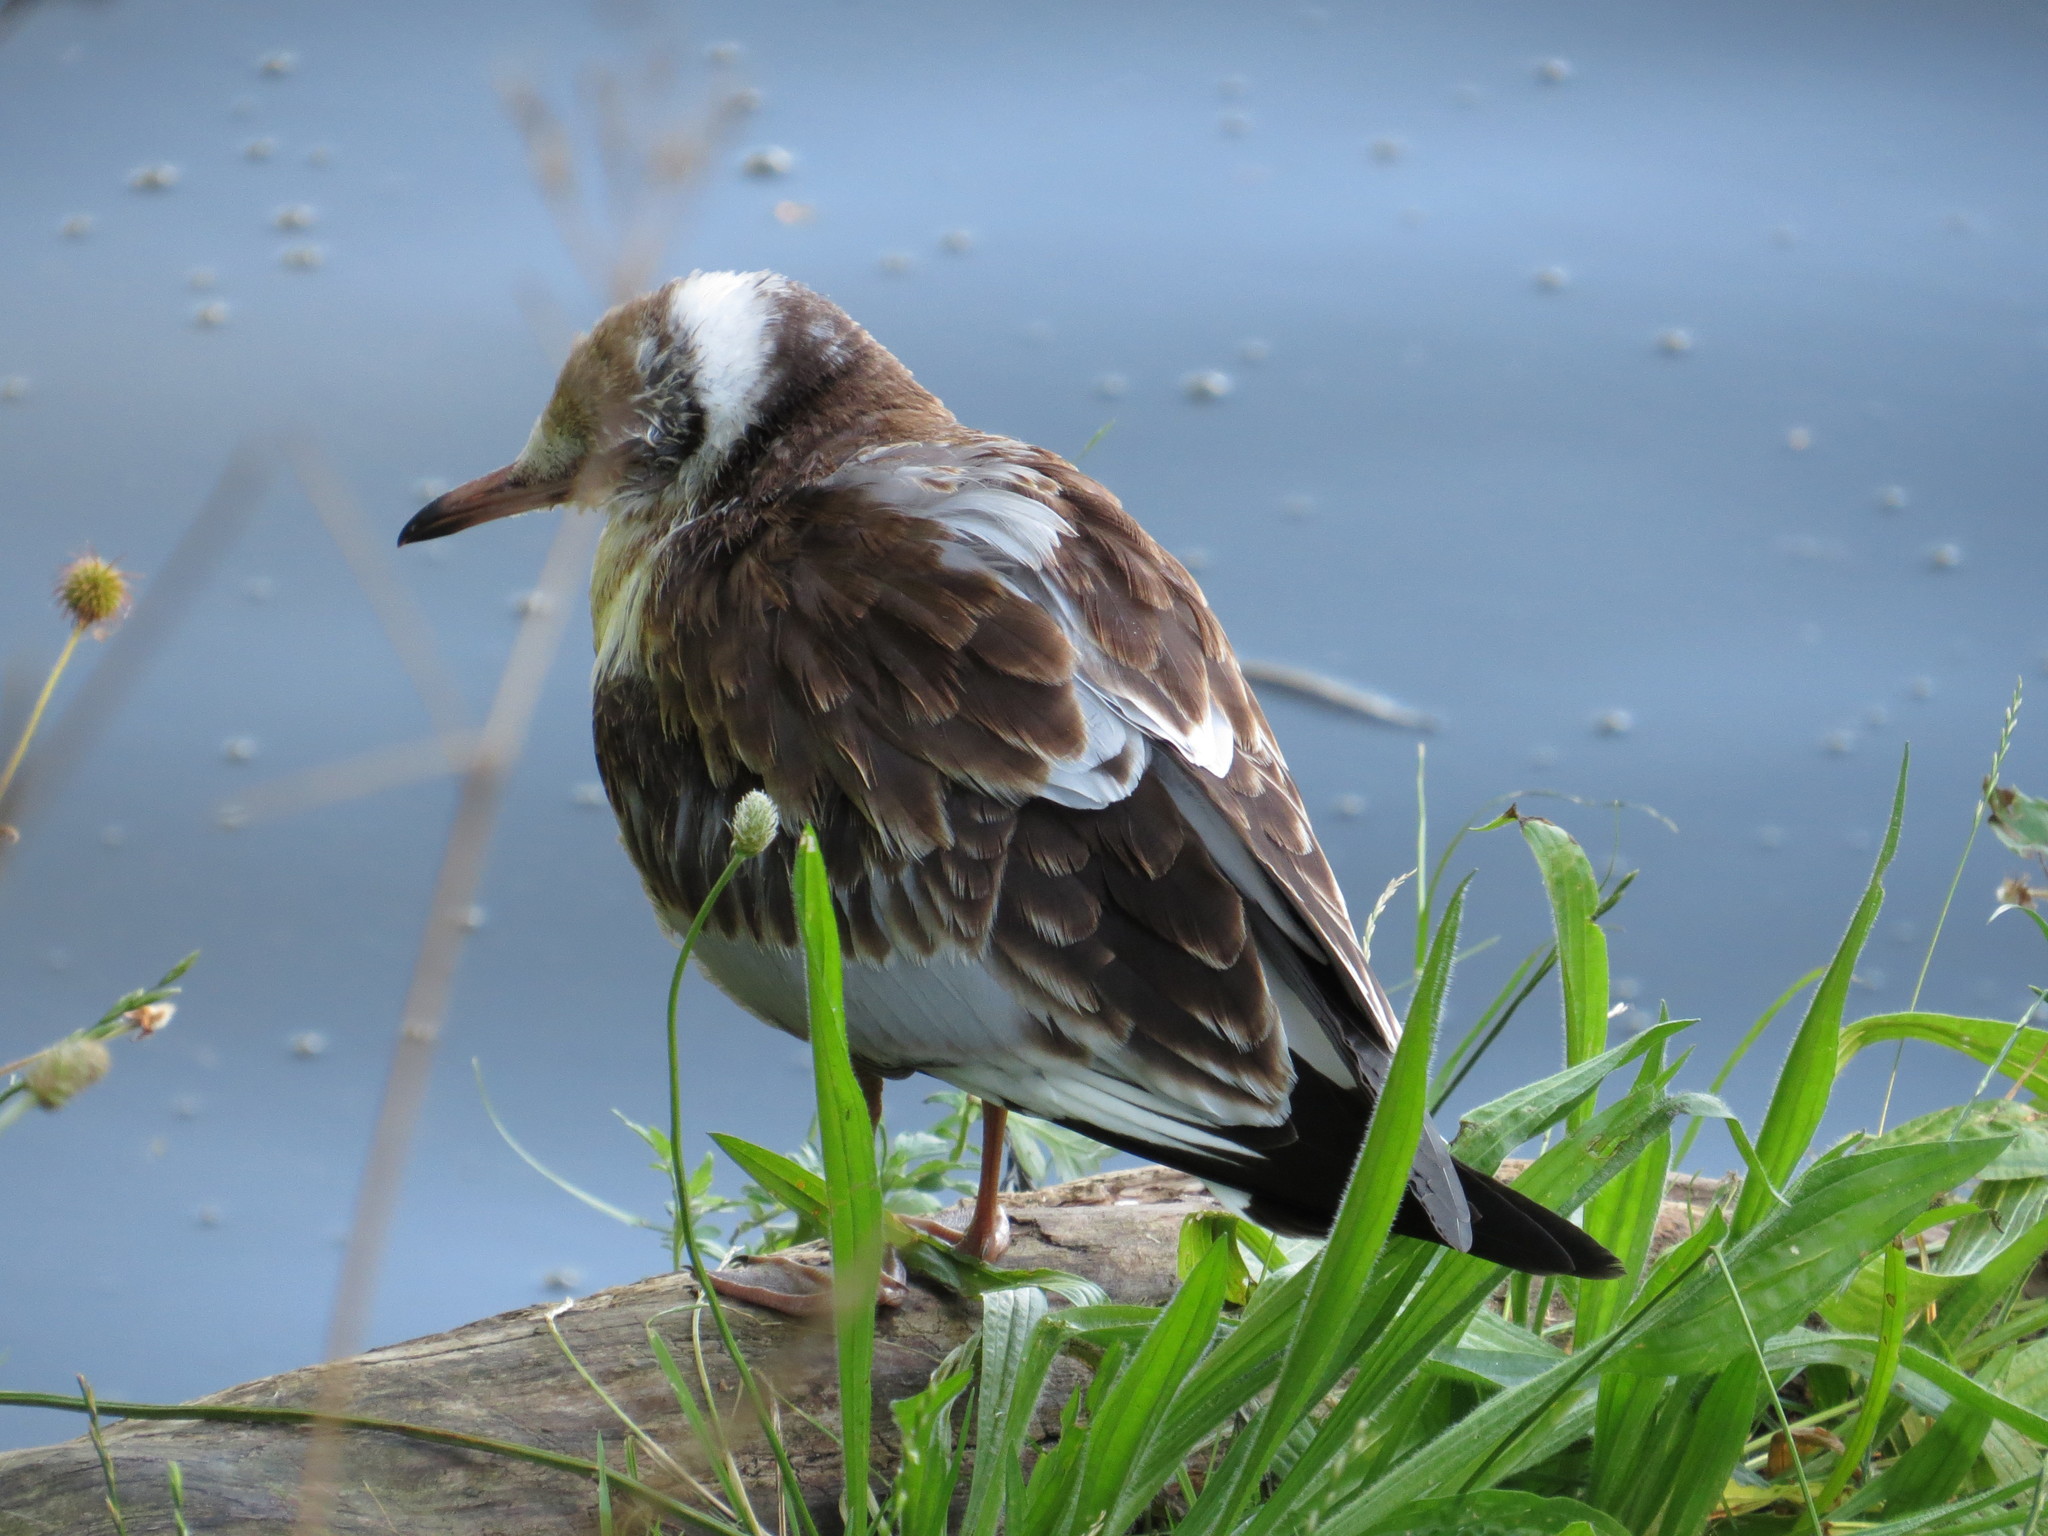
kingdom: Animalia
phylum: Chordata
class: Aves
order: Charadriiformes
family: Laridae
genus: Chroicocephalus
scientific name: Chroicocephalus ridibundus
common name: Black-headed gull
